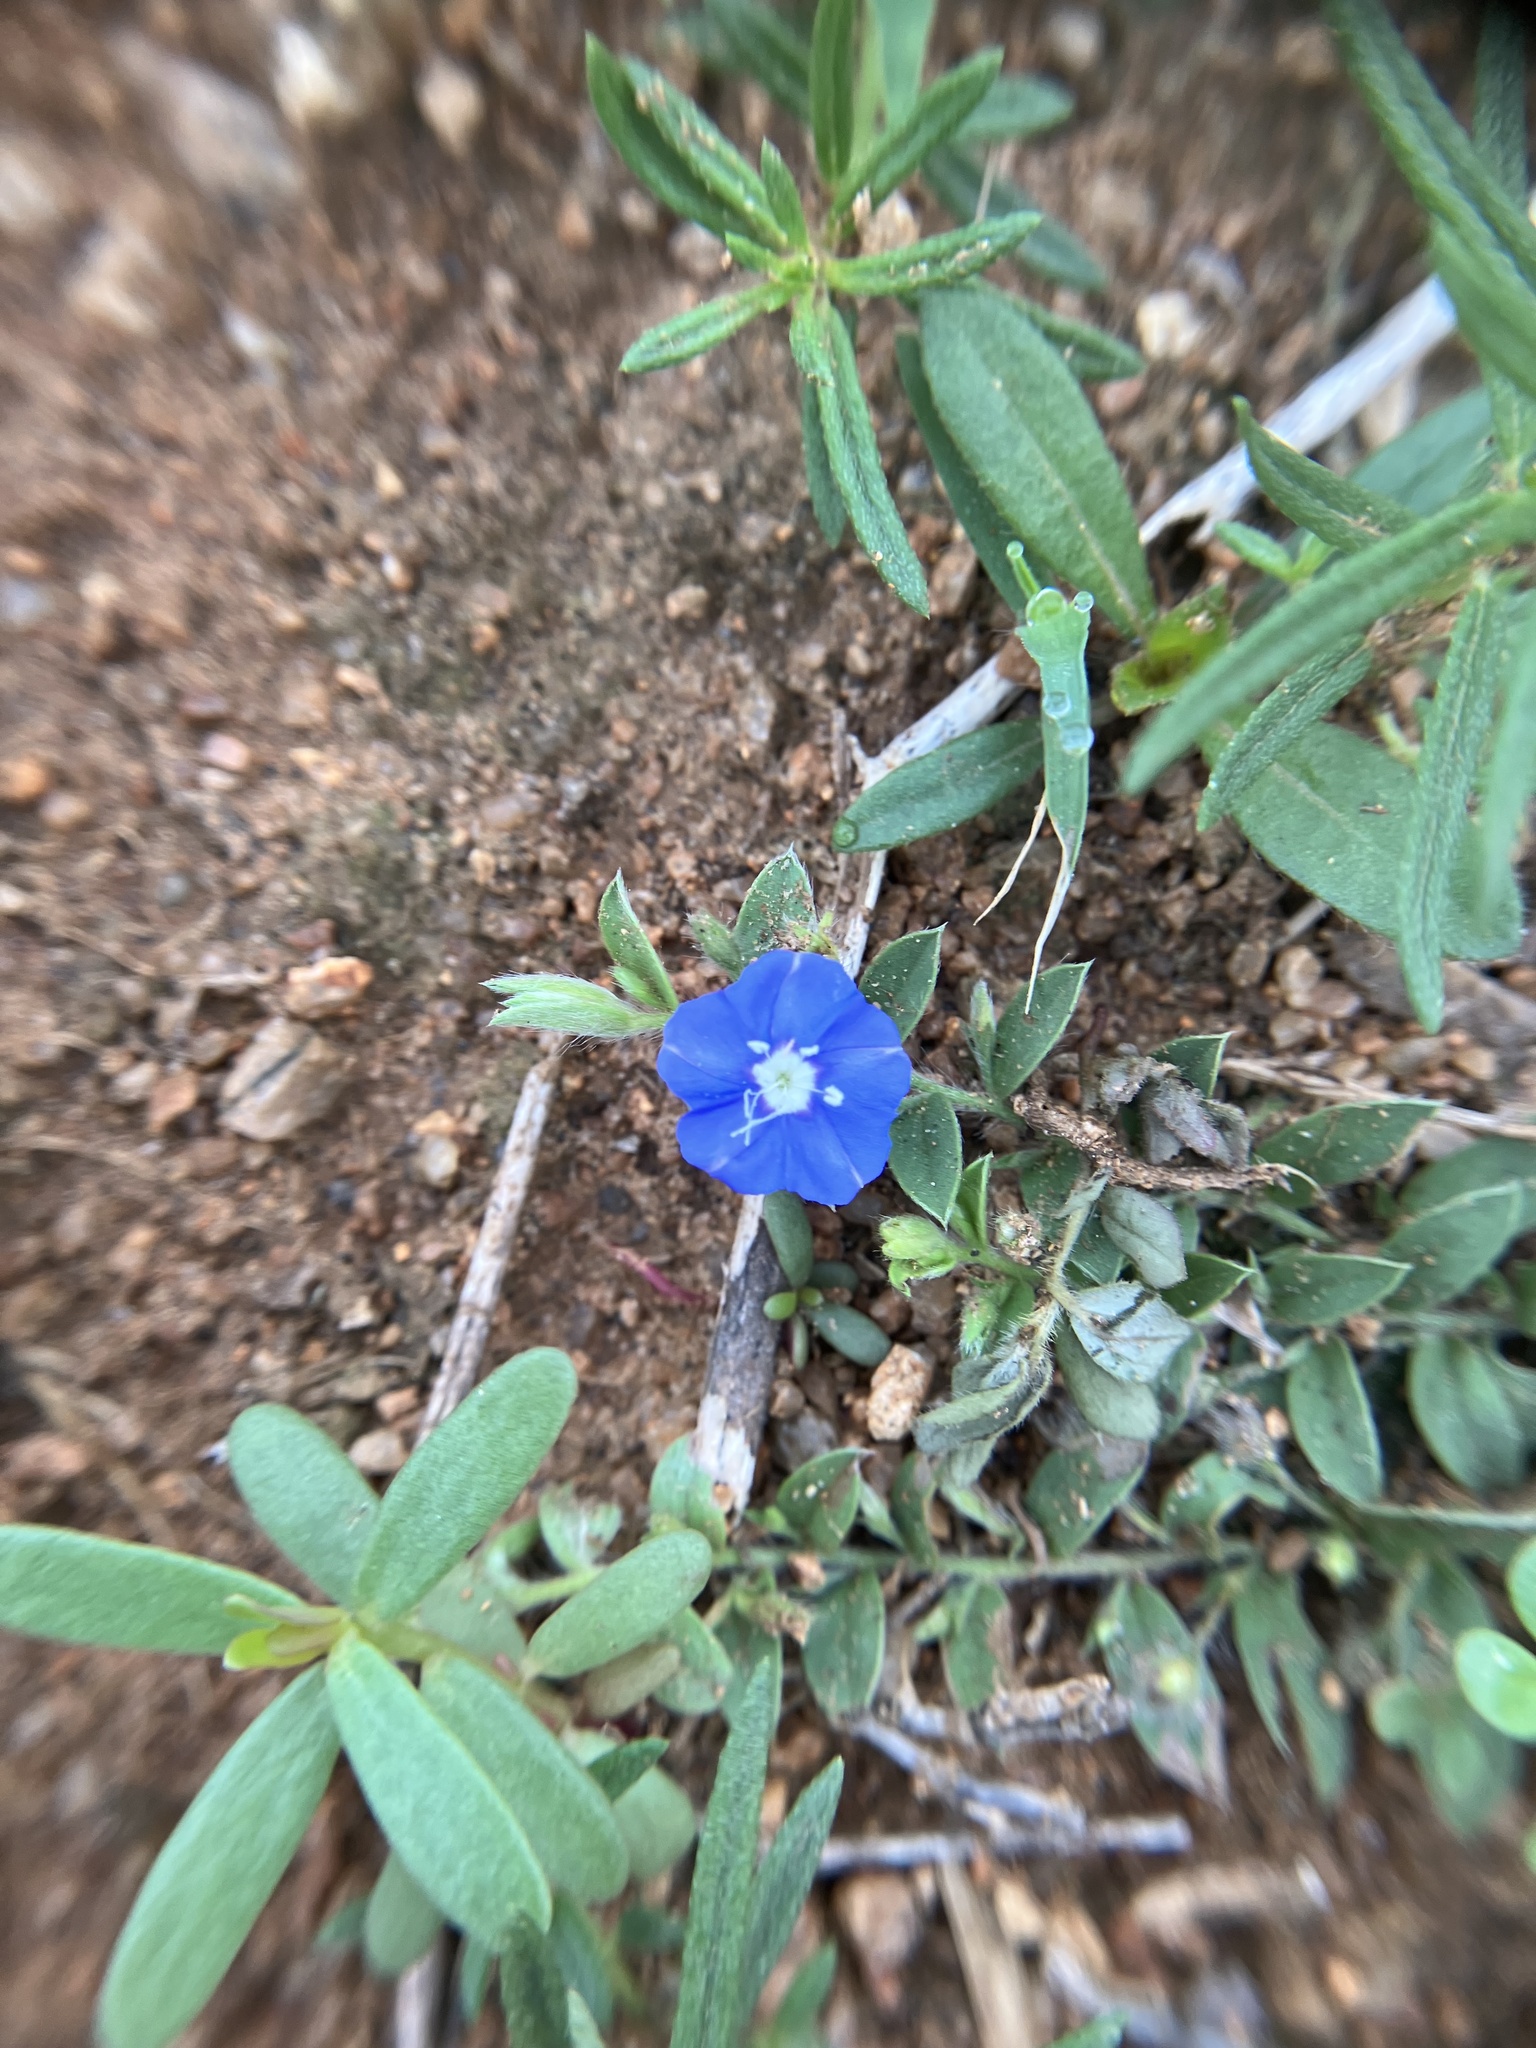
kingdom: Plantae
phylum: Tracheophyta
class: Magnoliopsida
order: Solanales
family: Convolvulaceae
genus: Evolvulus
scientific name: Evolvulus alsinoides
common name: Slender dwarf morning-glory
